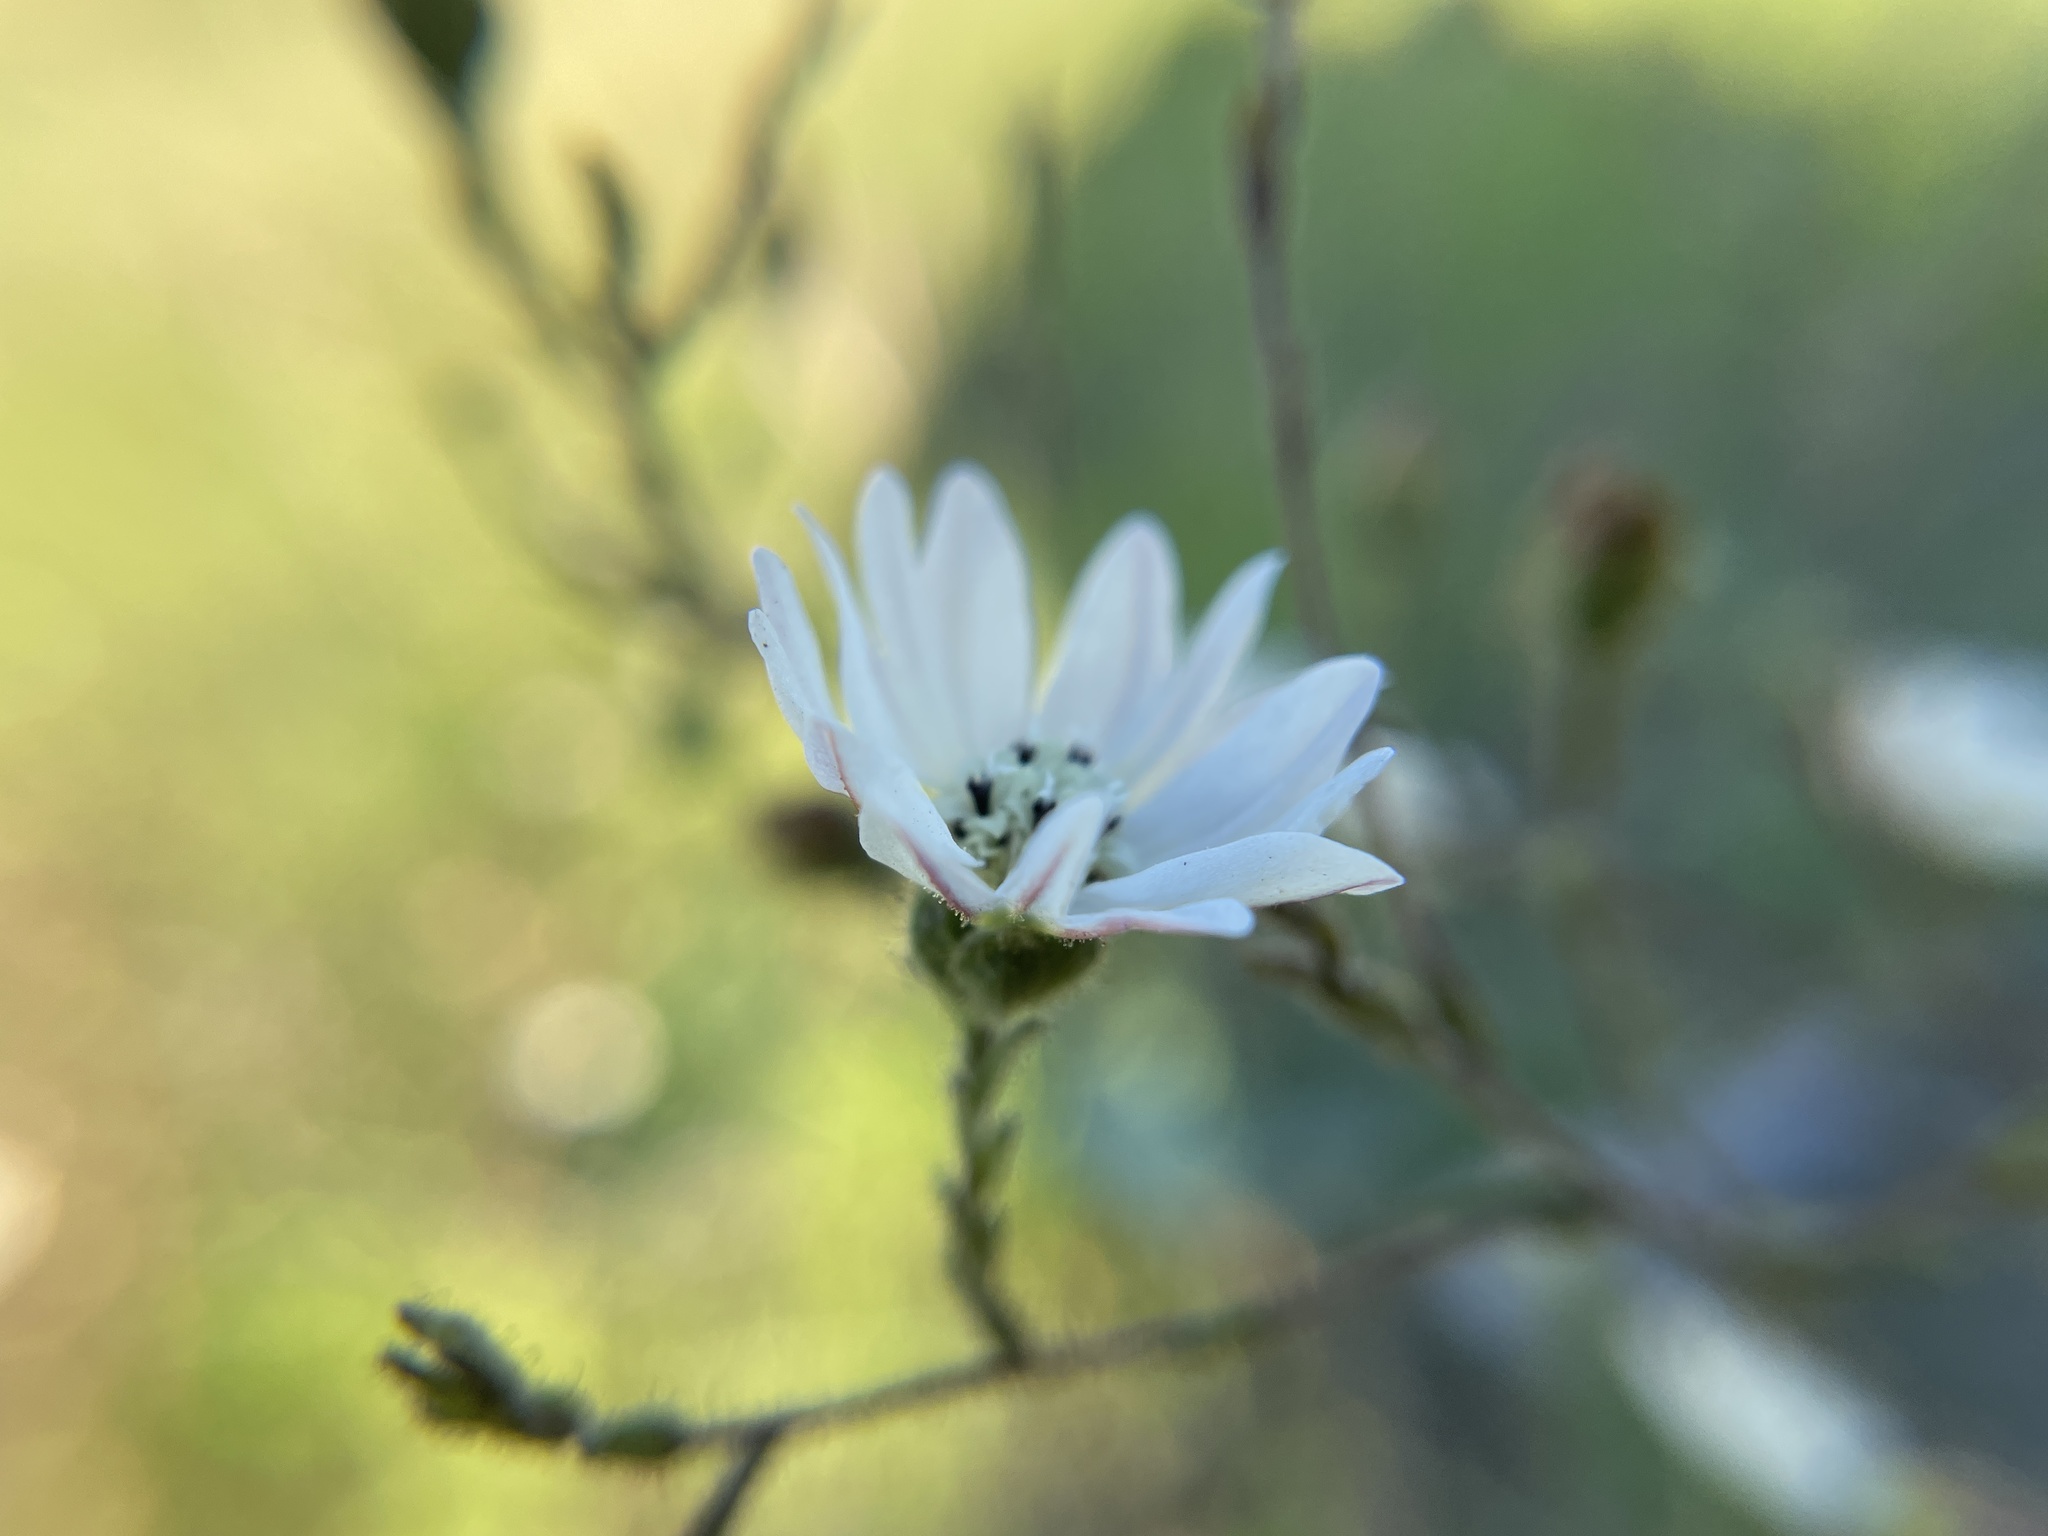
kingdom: Plantae
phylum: Tracheophyta
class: Magnoliopsida
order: Asterales
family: Asteraceae
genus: Hemizonia
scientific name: Hemizonia congesta
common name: Hayfield tarweed
